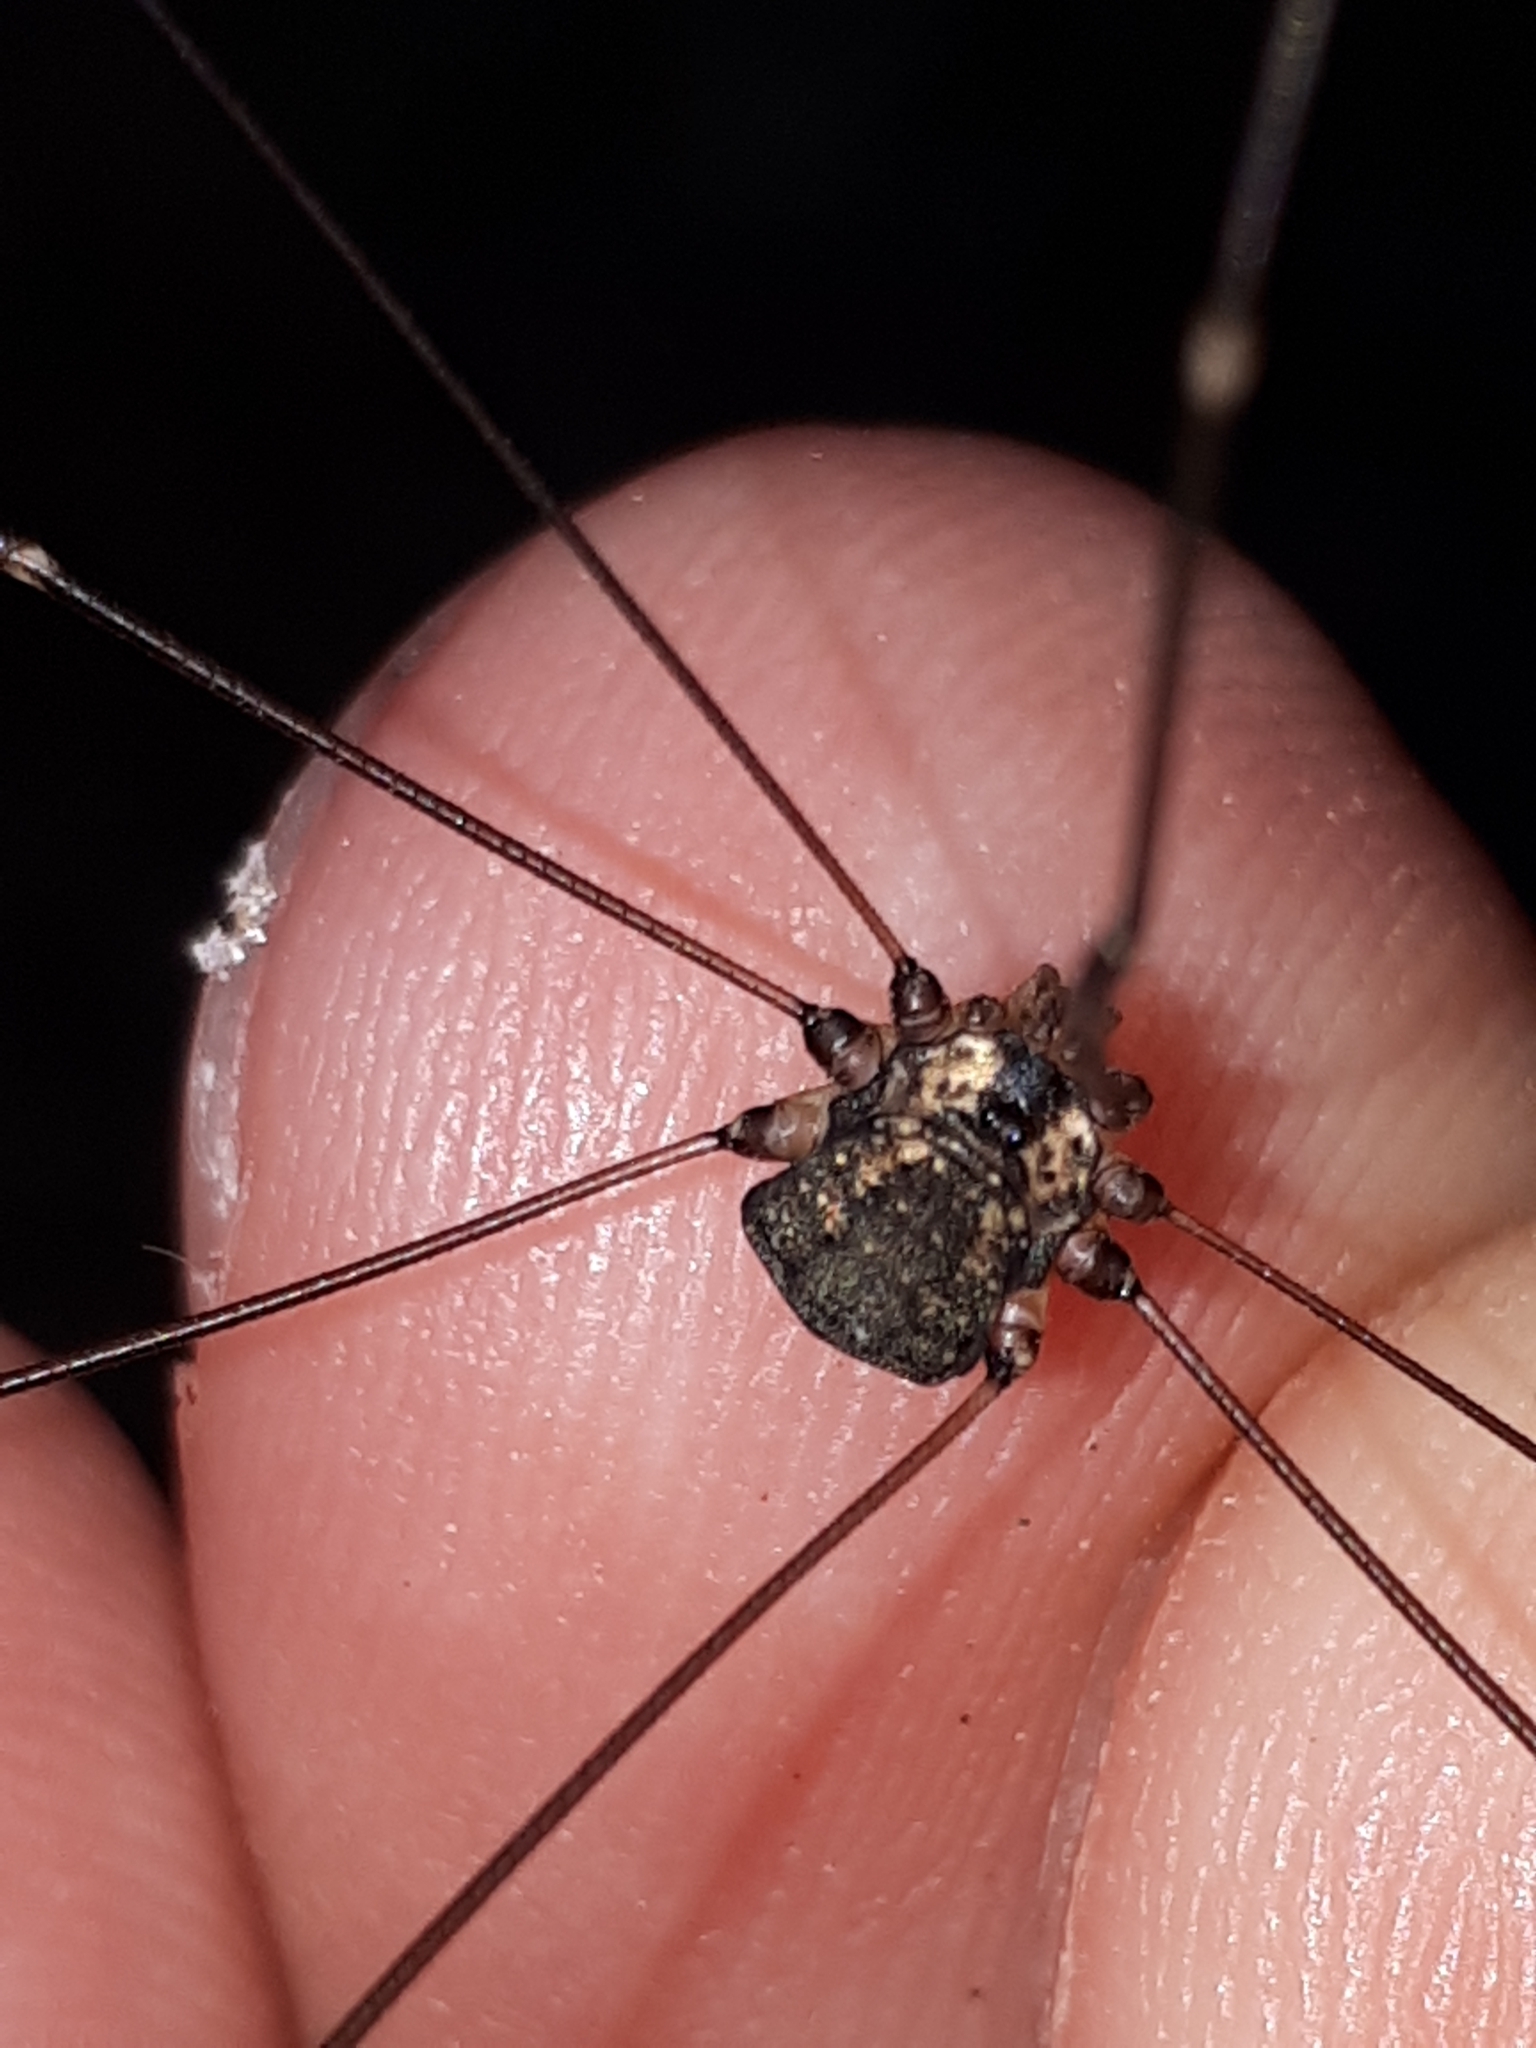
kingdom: Animalia
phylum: Arthropoda
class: Arachnida
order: Opiliones
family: Sclerosomatidae
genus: Leiobunum
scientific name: Leiobunum
